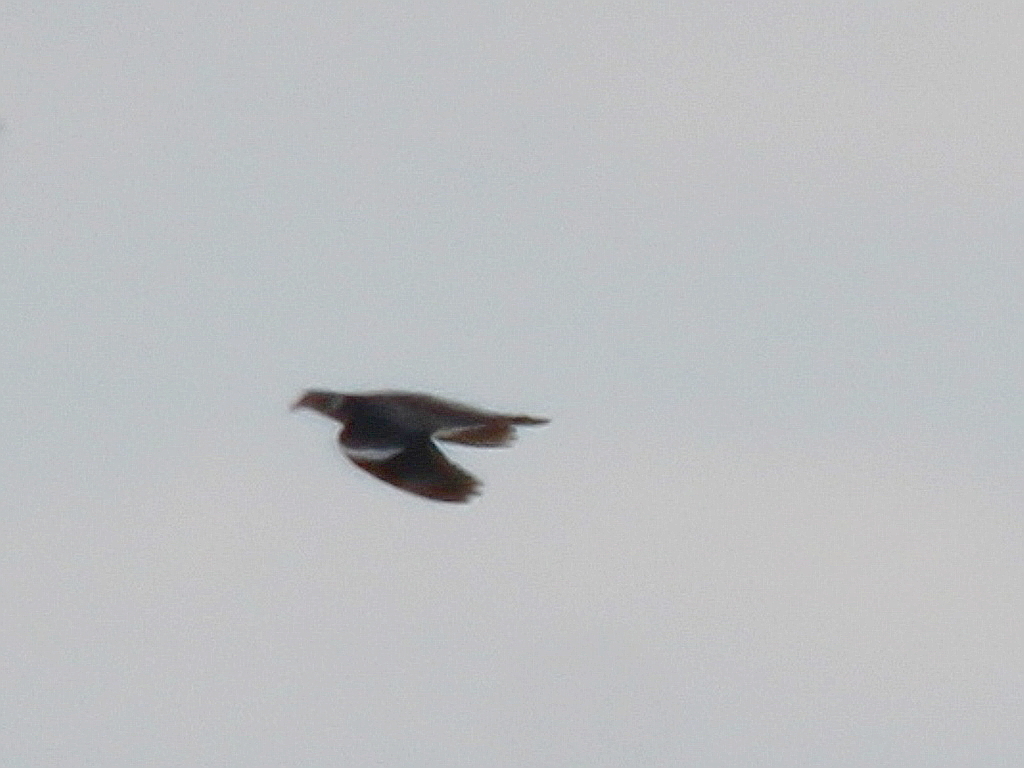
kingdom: Animalia
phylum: Chordata
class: Aves
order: Columbiformes
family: Columbidae
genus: Columba
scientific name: Columba palumbus
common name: Common wood pigeon
